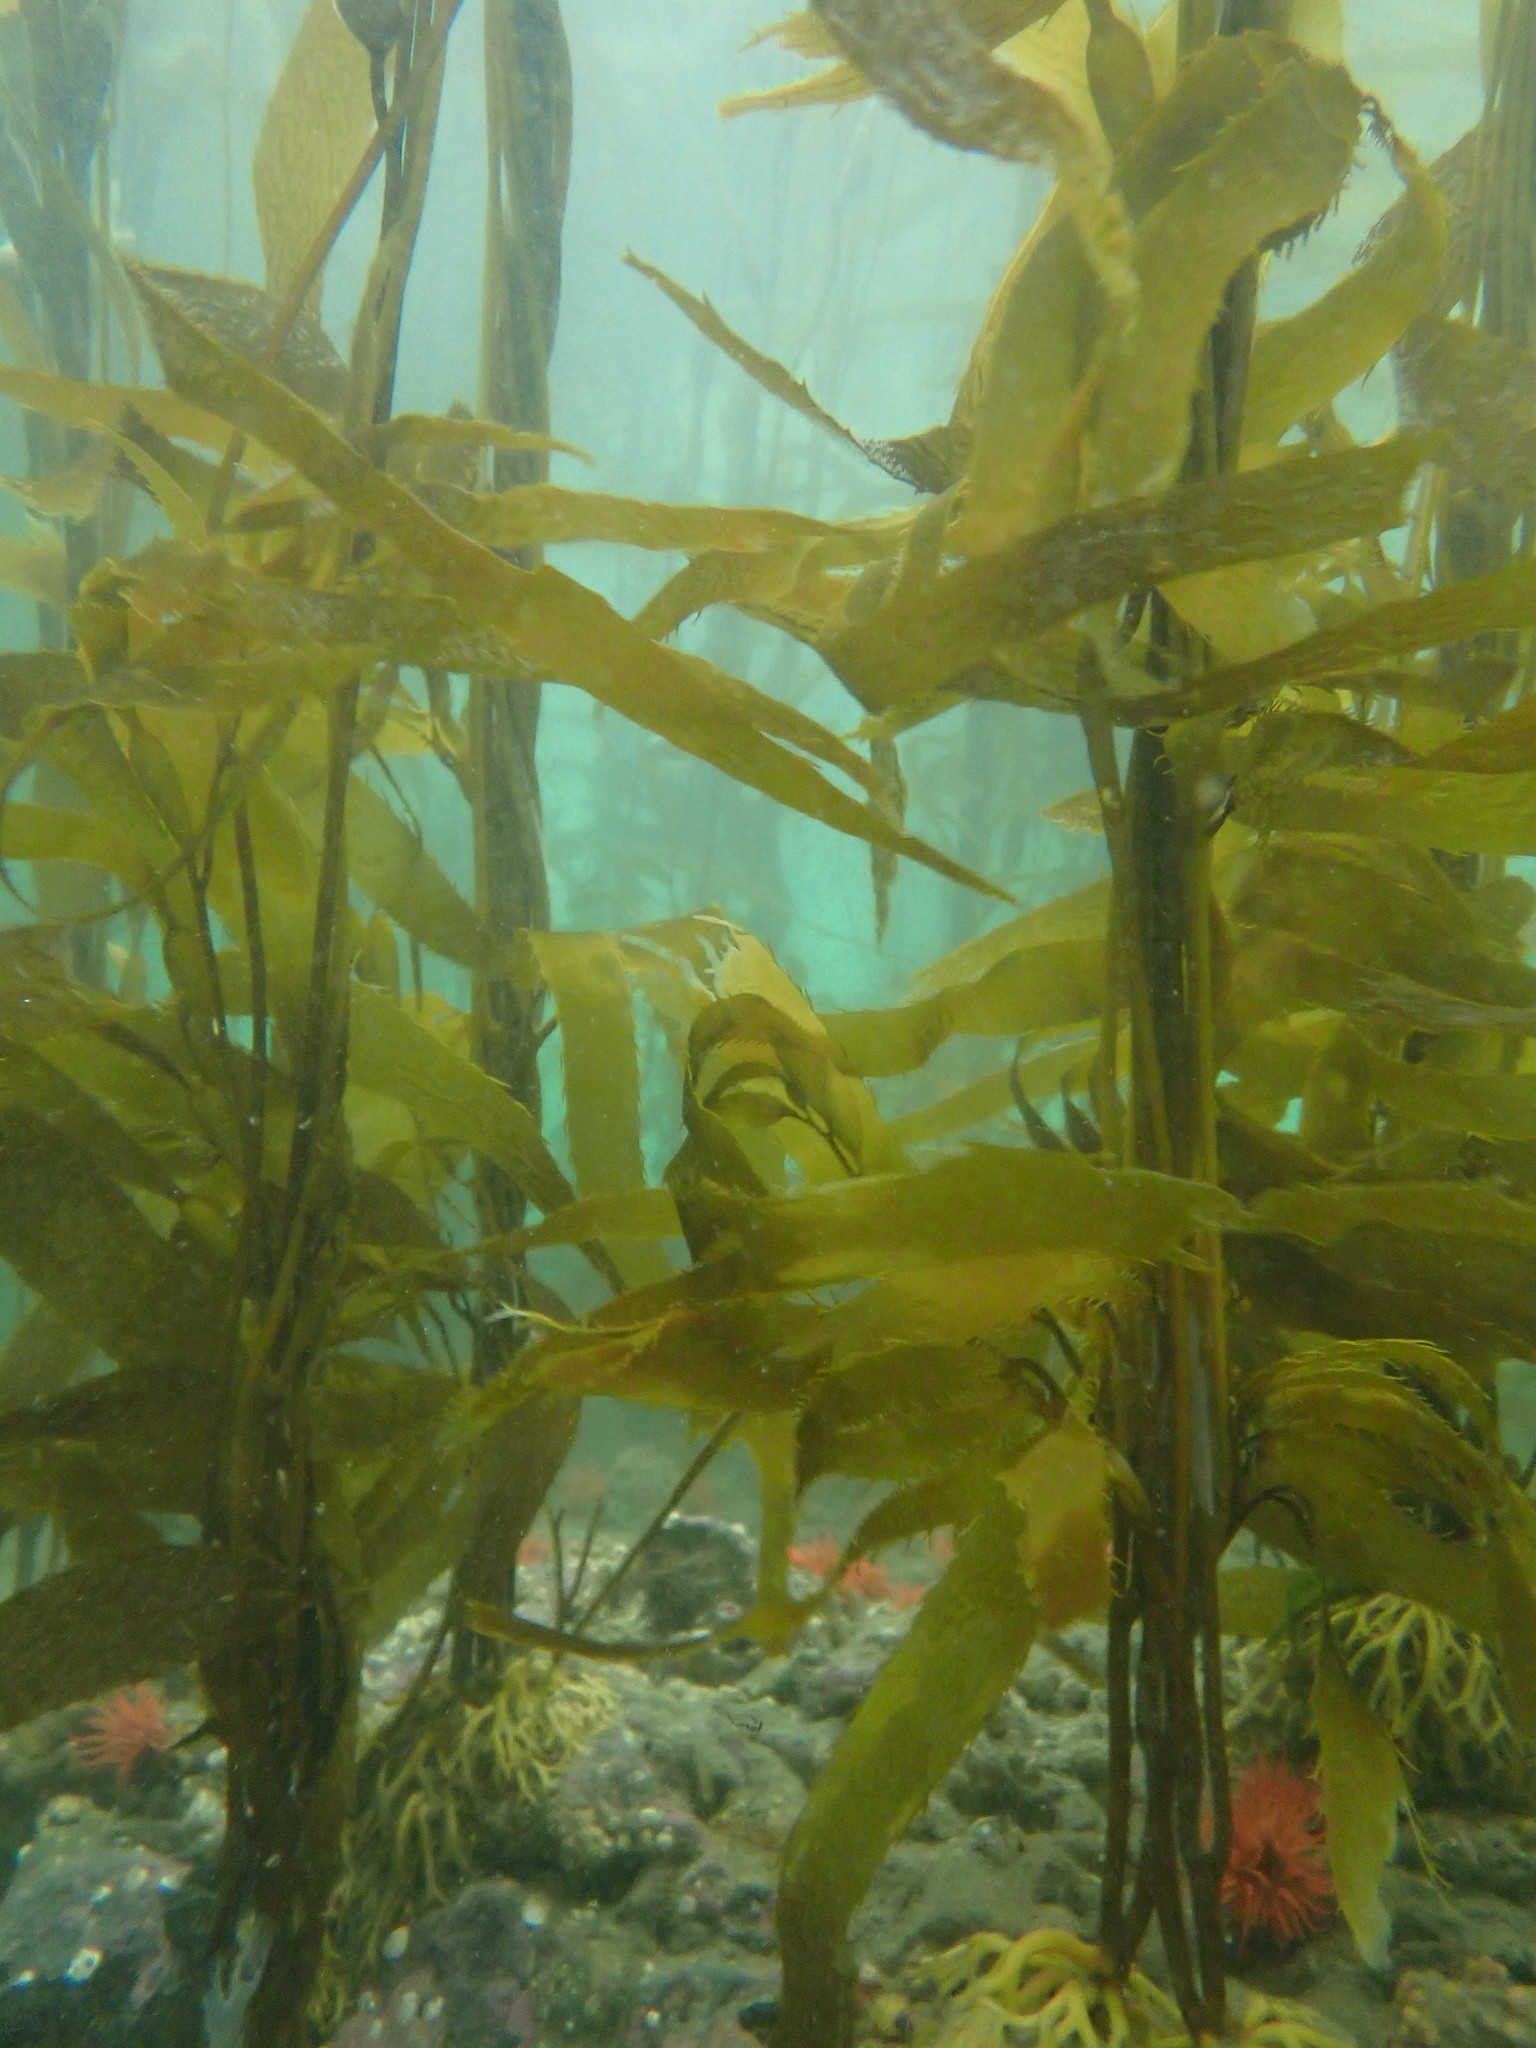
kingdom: Chromista
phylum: Ochrophyta
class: Phaeophyceae
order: Laminariales
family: Laminariaceae
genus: Macrocystis
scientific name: Macrocystis pyrifera
